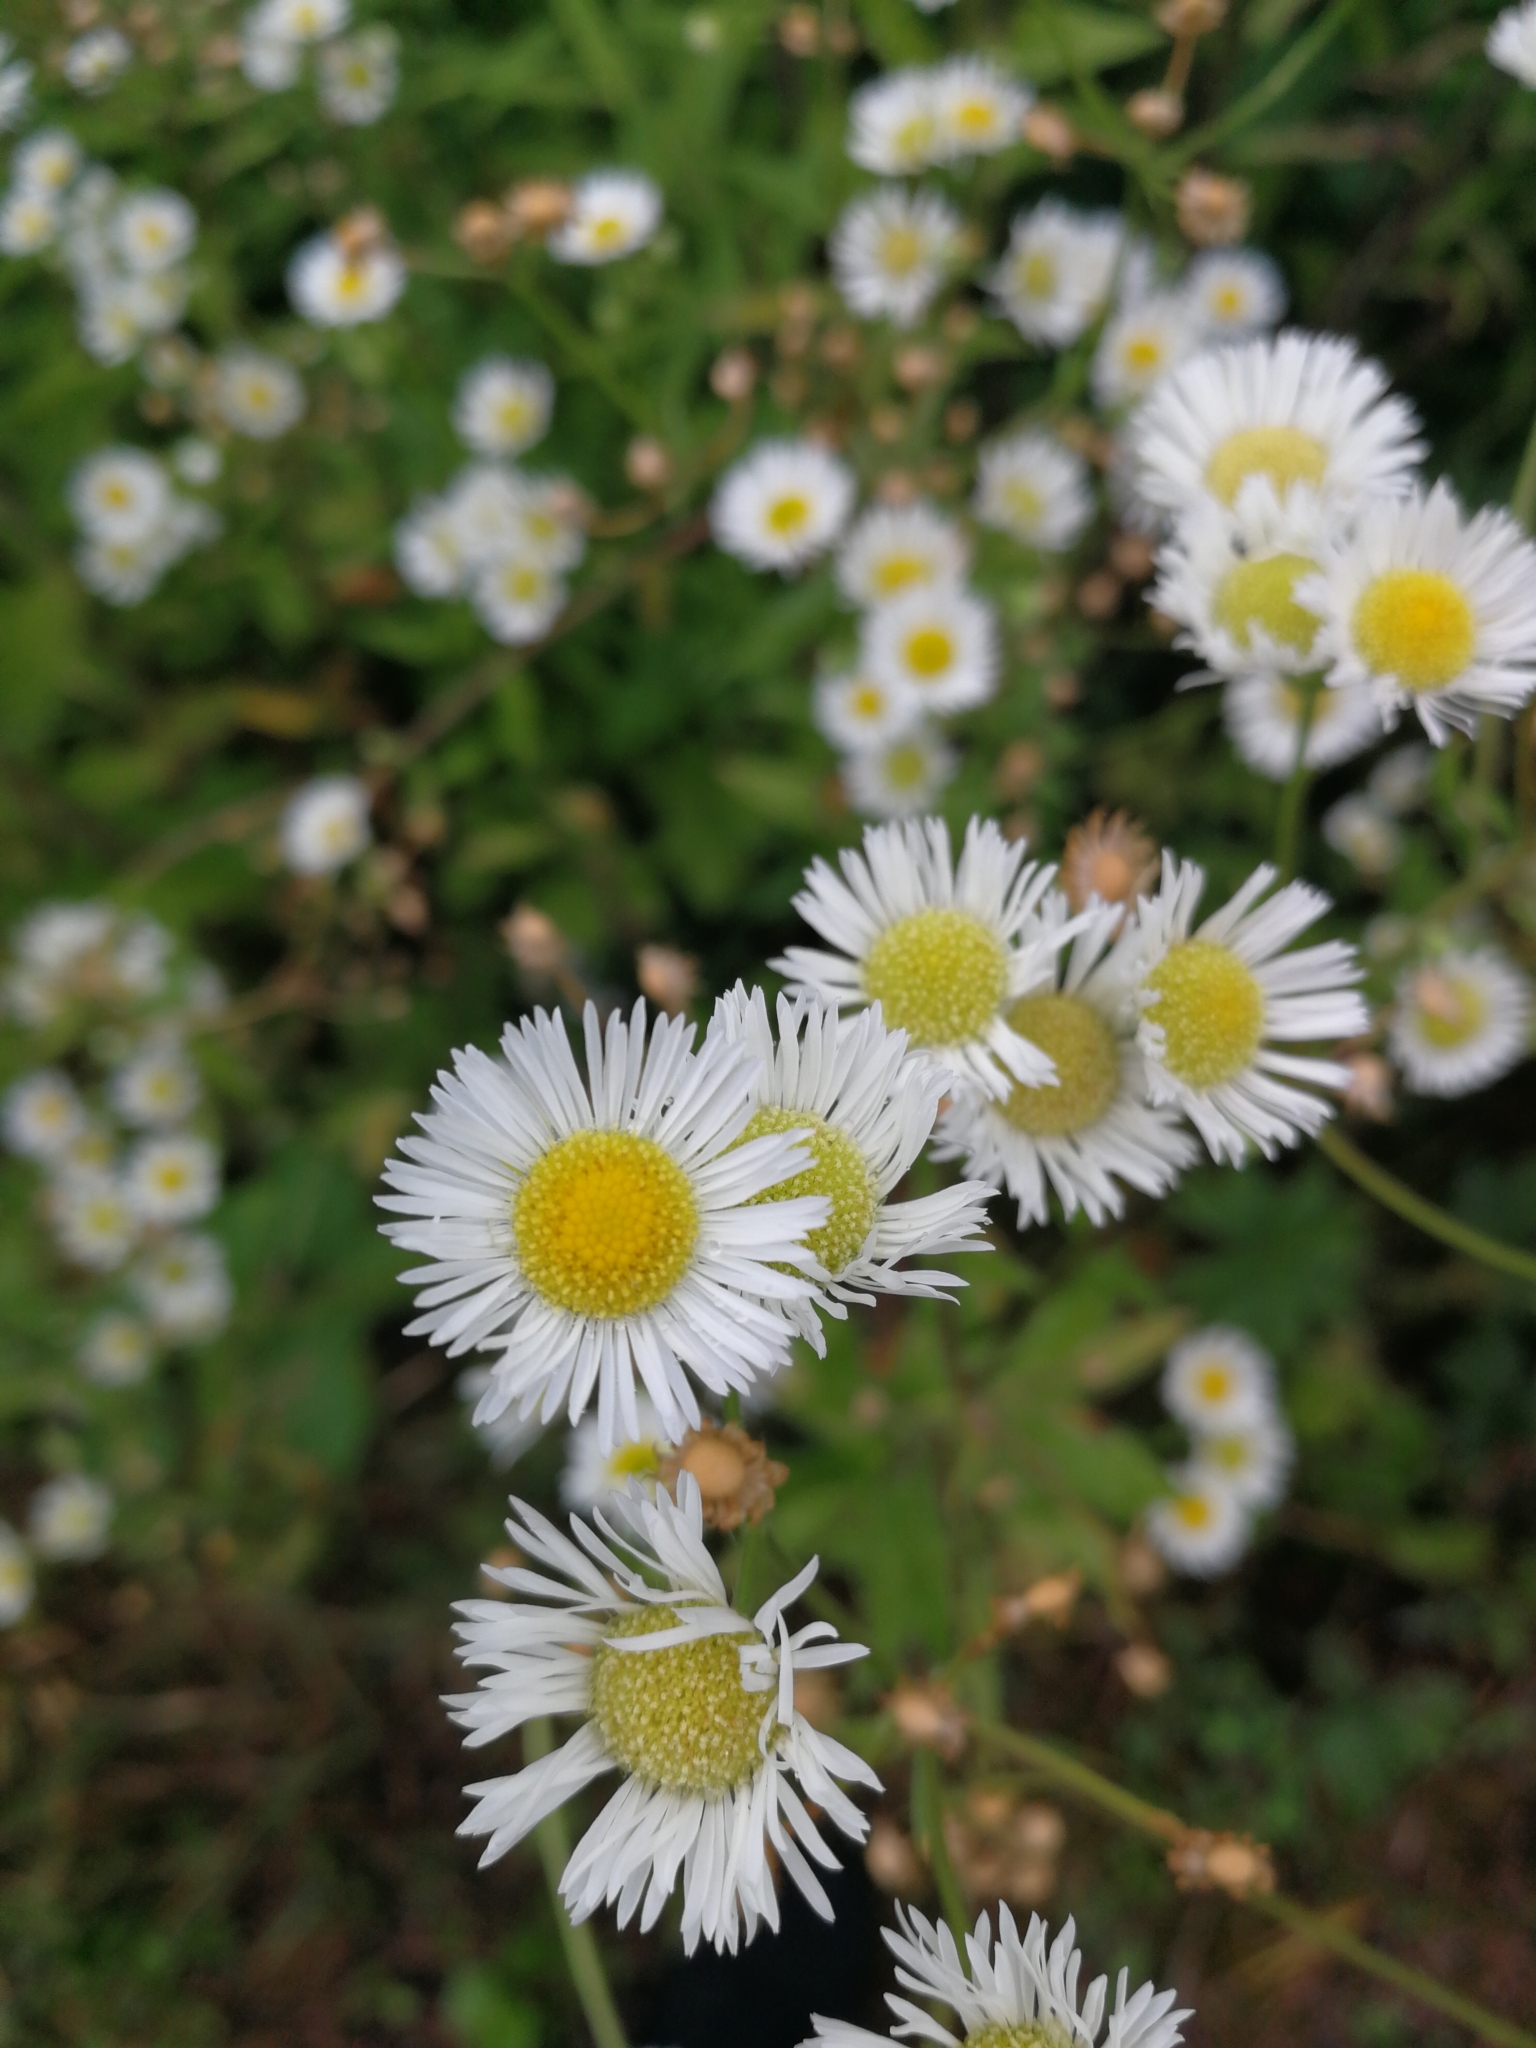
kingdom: Plantae
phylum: Tracheophyta
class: Magnoliopsida
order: Asterales
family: Asteraceae
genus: Erigeron
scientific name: Erigeron annuus
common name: Tall fleabane
